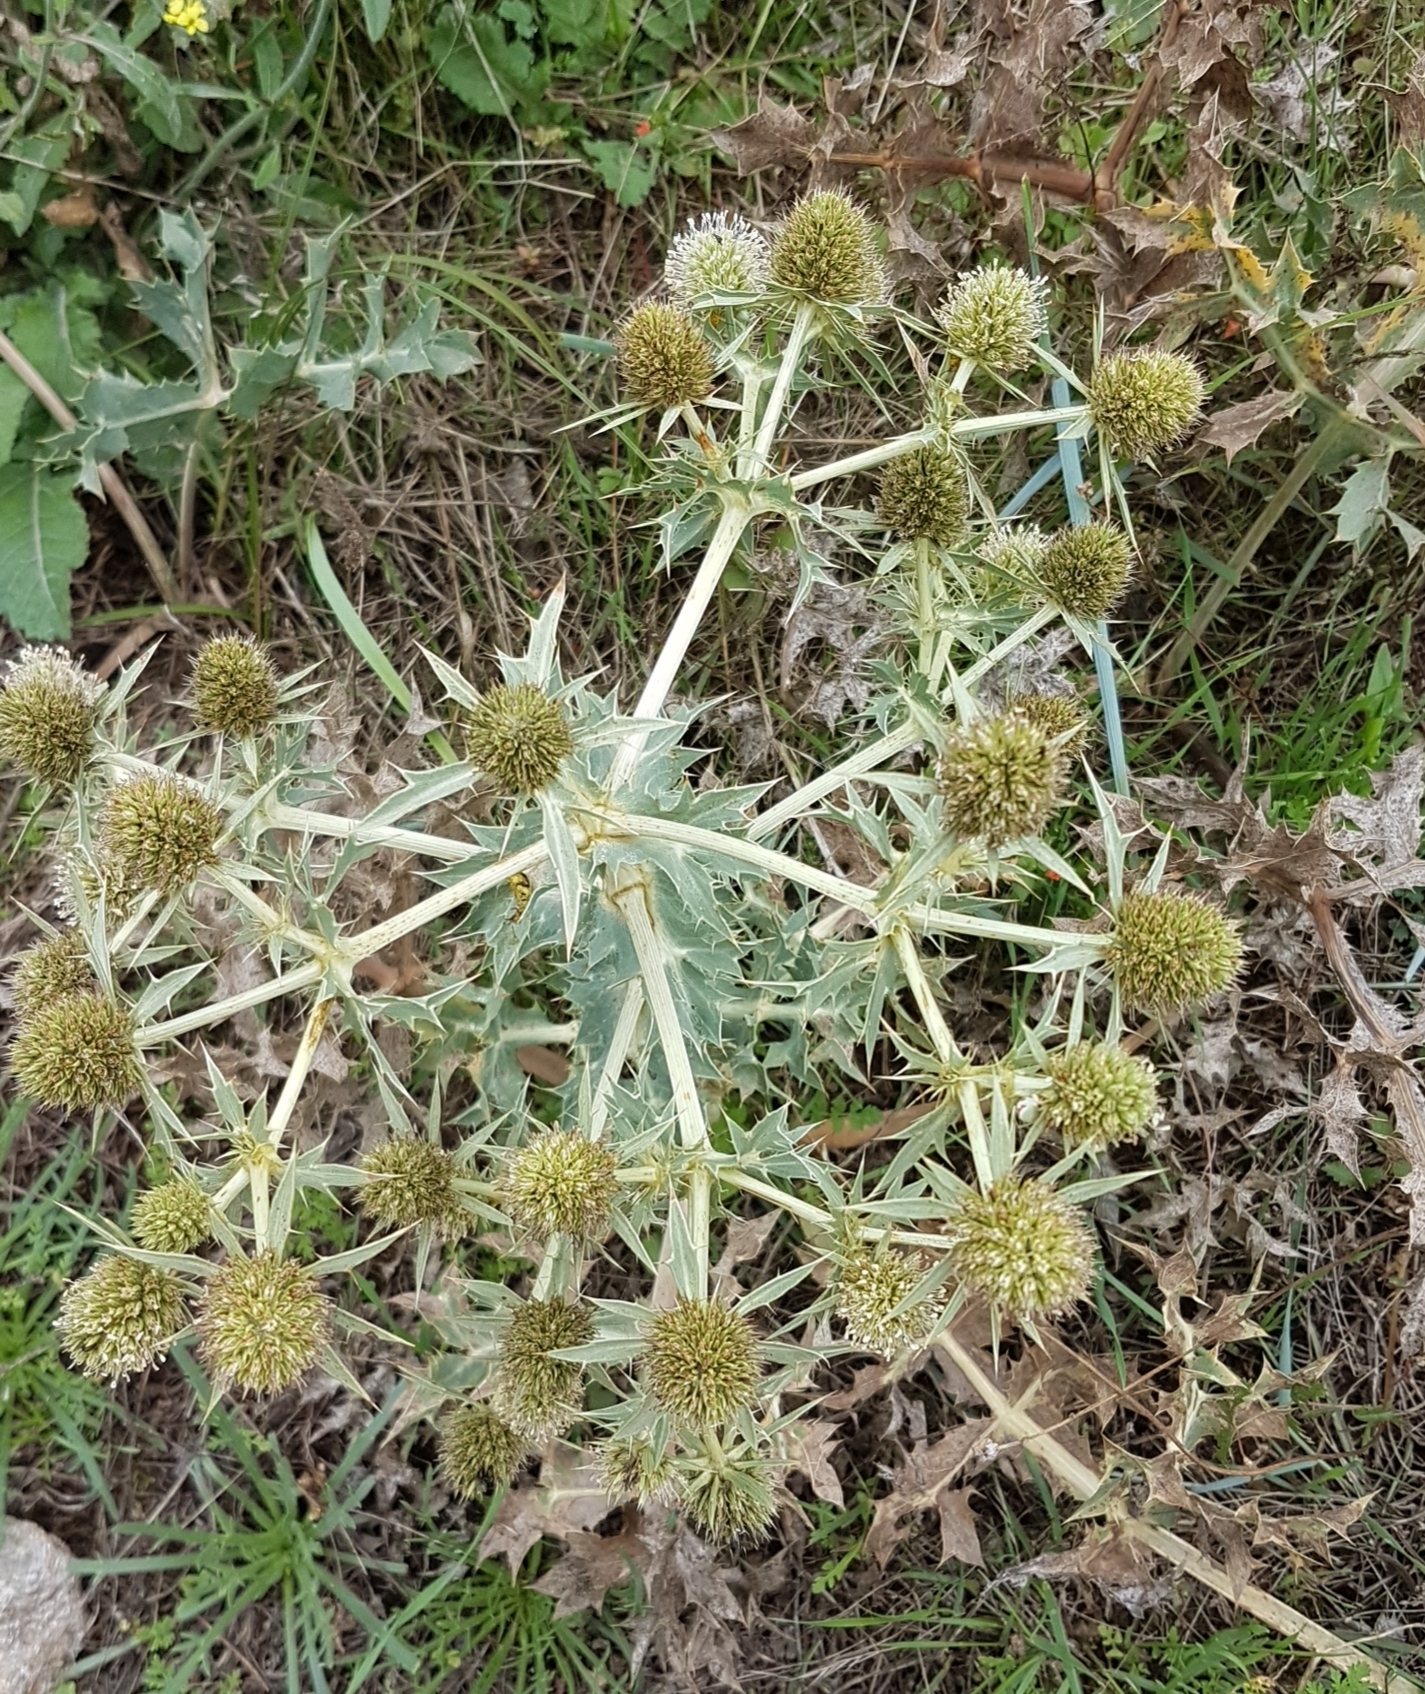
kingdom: Plantae
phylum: Tracheophyta
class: Magnoliopsida
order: Apiales
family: Apiaceae
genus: Eryngium
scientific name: Eryngium campestre
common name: Field eryngo
